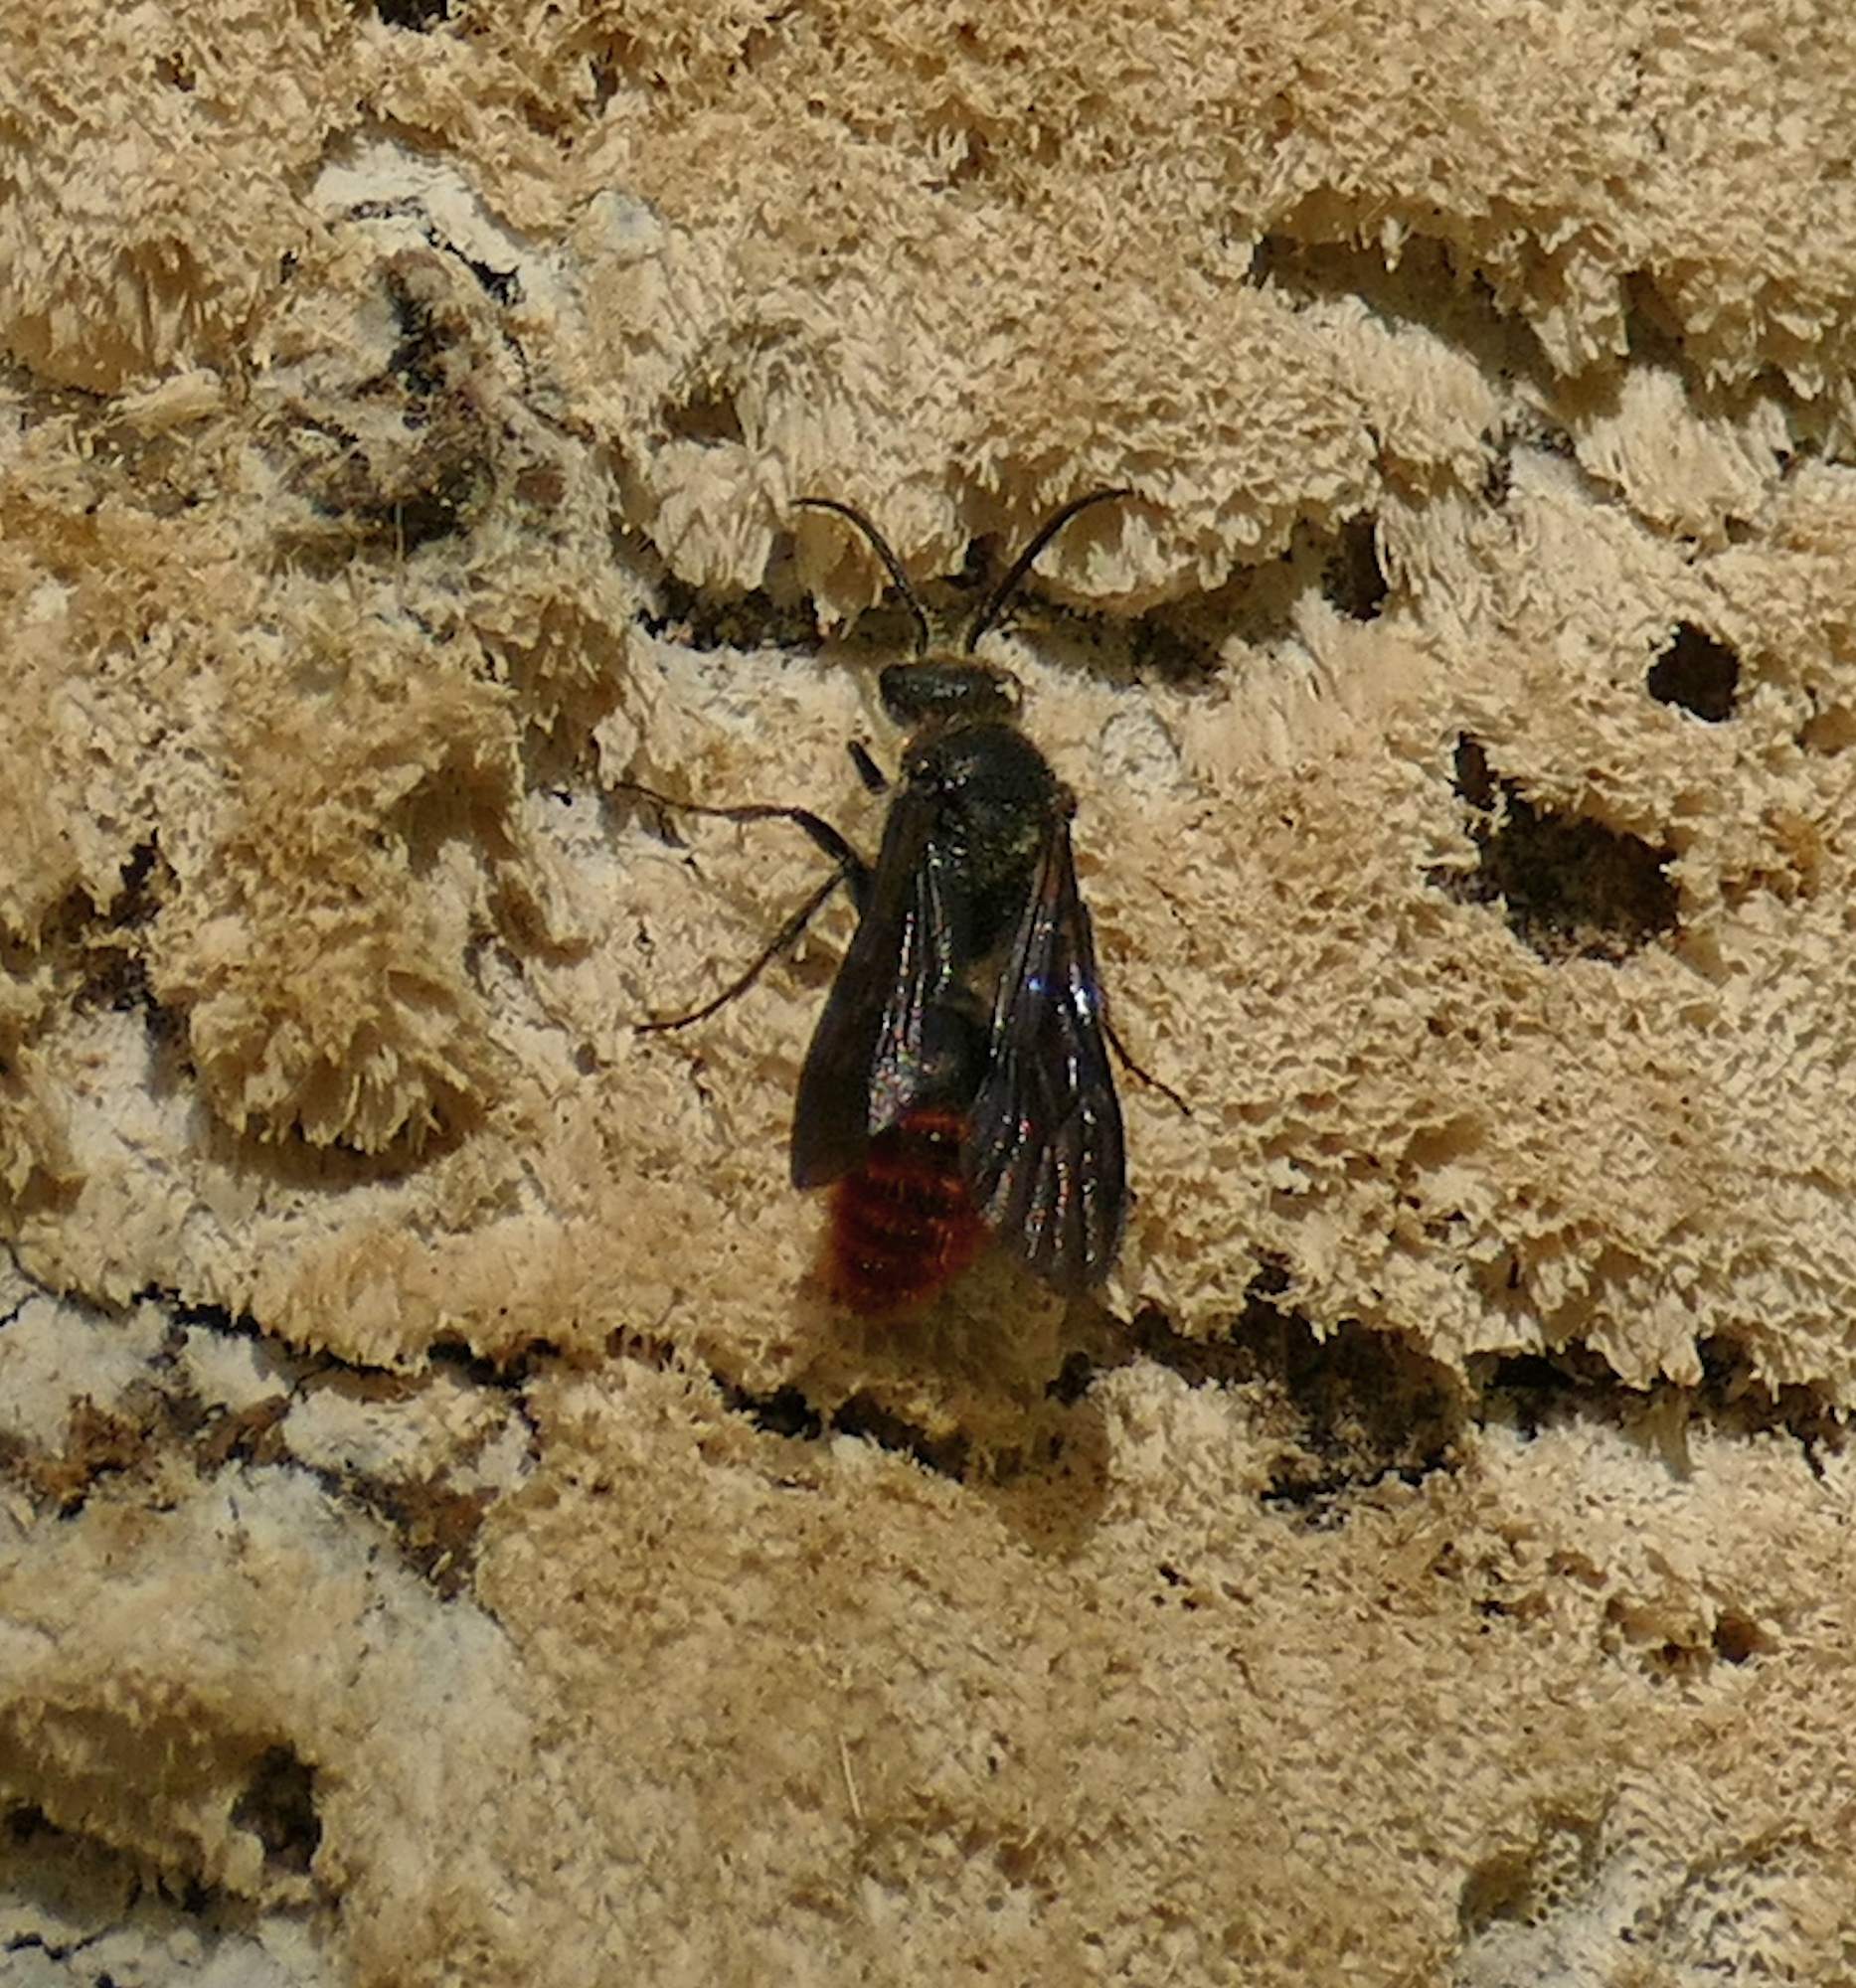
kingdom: Animalia
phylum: Arthropoda
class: Insecta
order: Hymenoptera
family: Mutillidae
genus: Pseudomethoca
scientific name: Pseudomethoca wickhami
